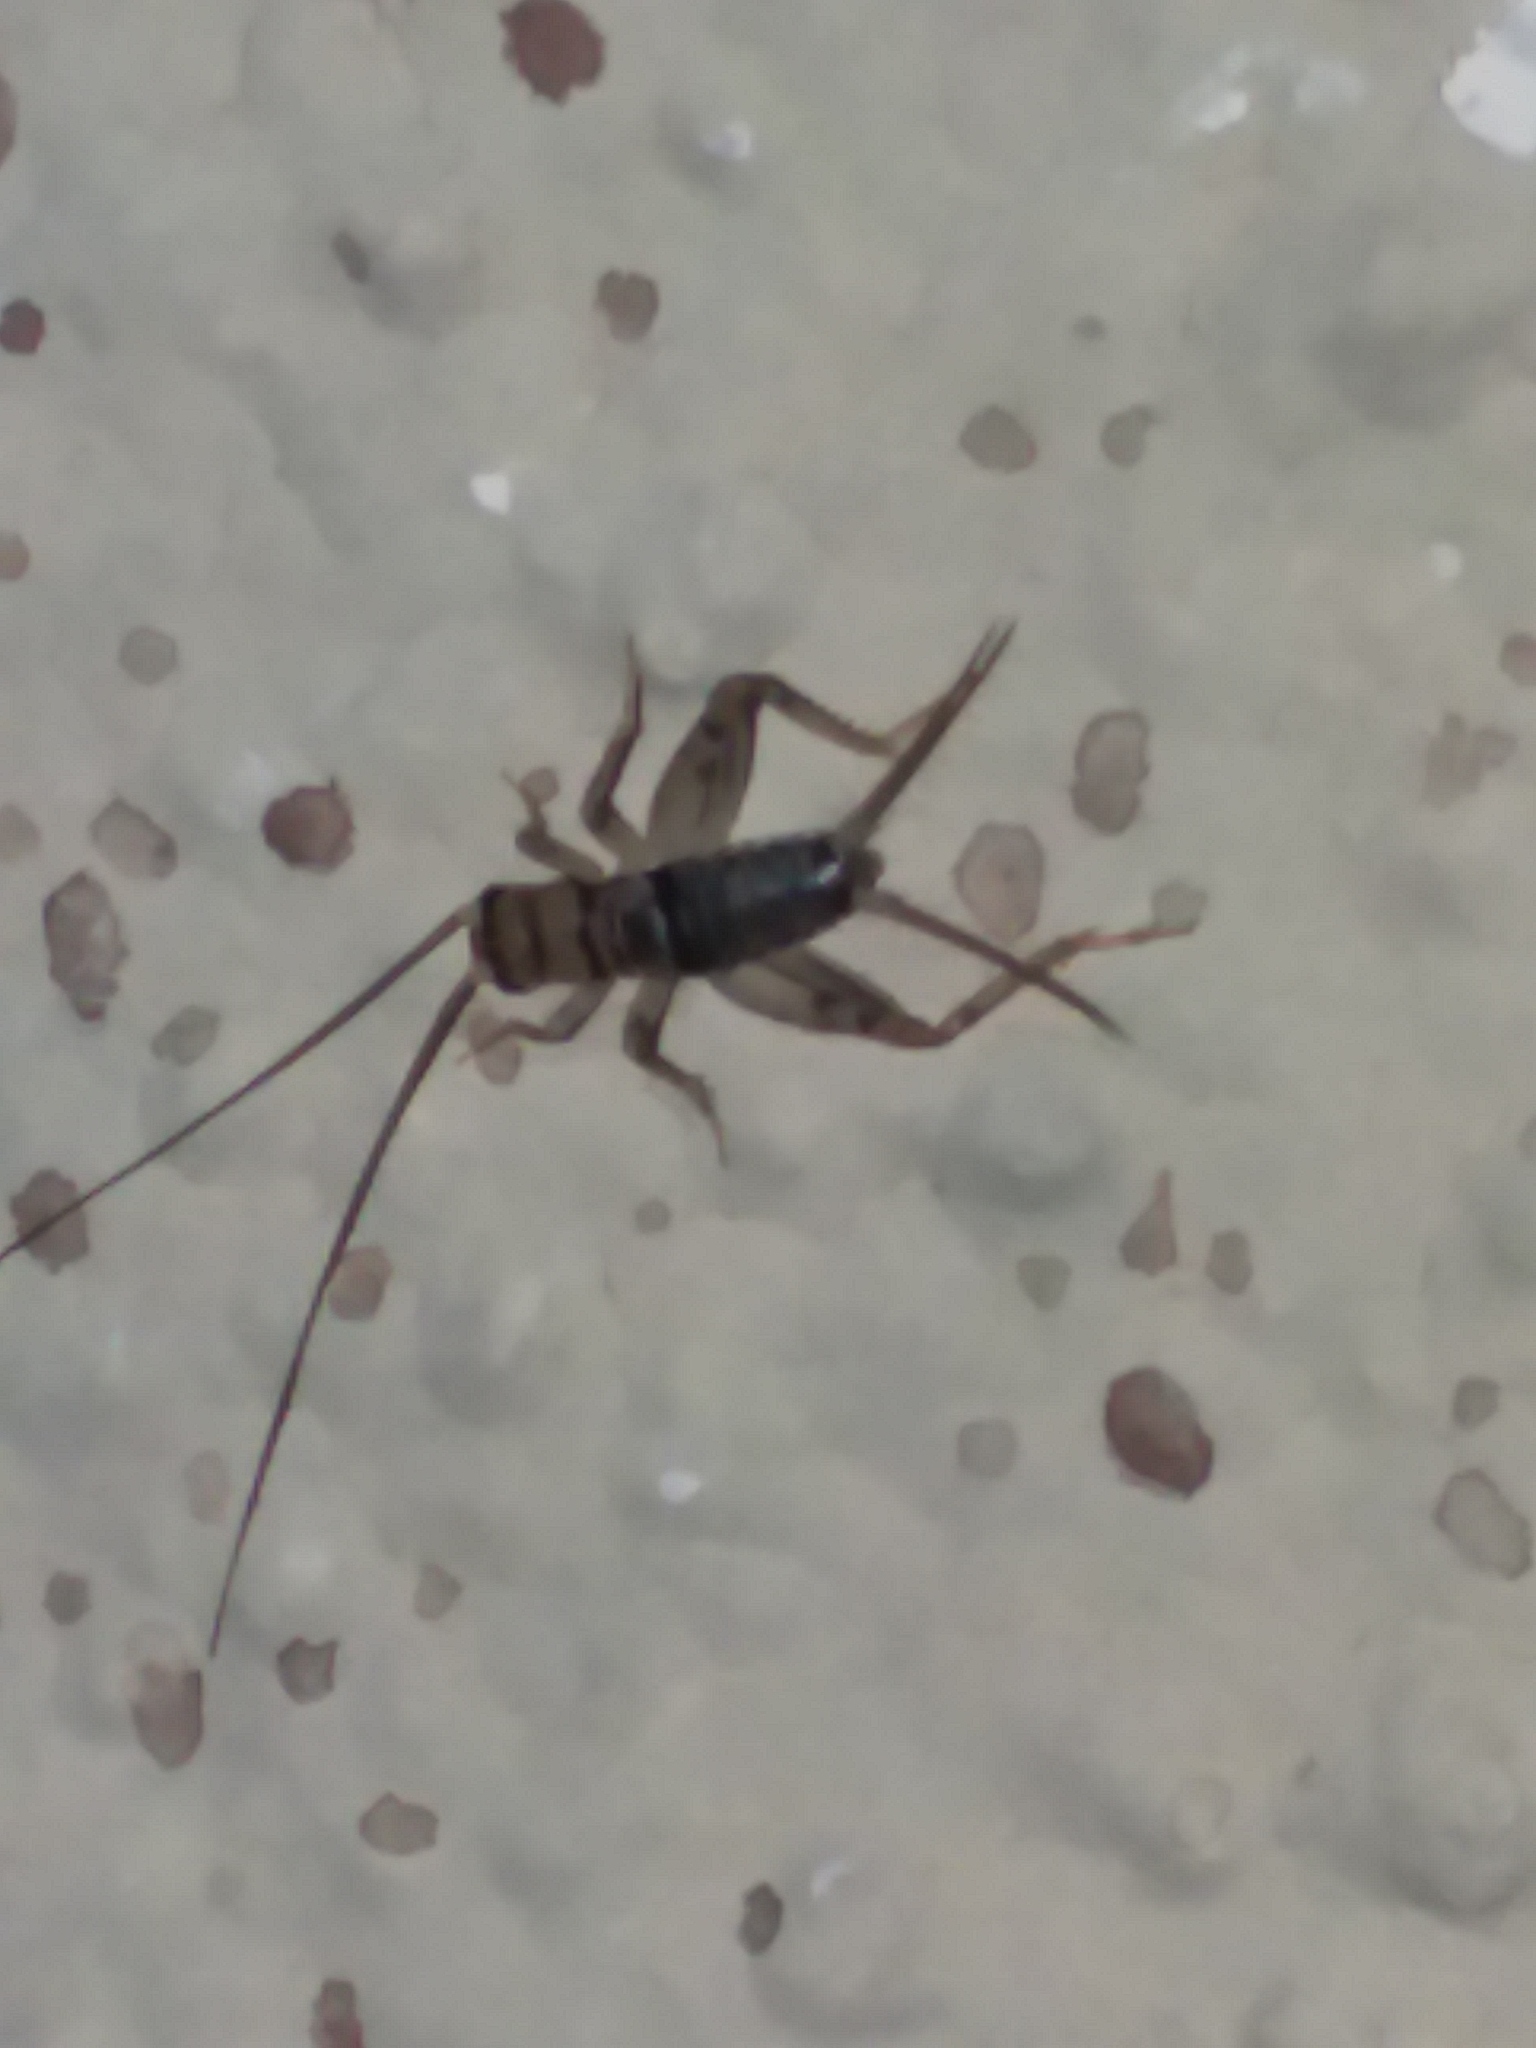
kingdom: Animalia
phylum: Arthropoda
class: Insecta
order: Orthoptera
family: Gryllidae
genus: Gryllodes
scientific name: Gryllodes sigillatus
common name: Tropical house cricket
